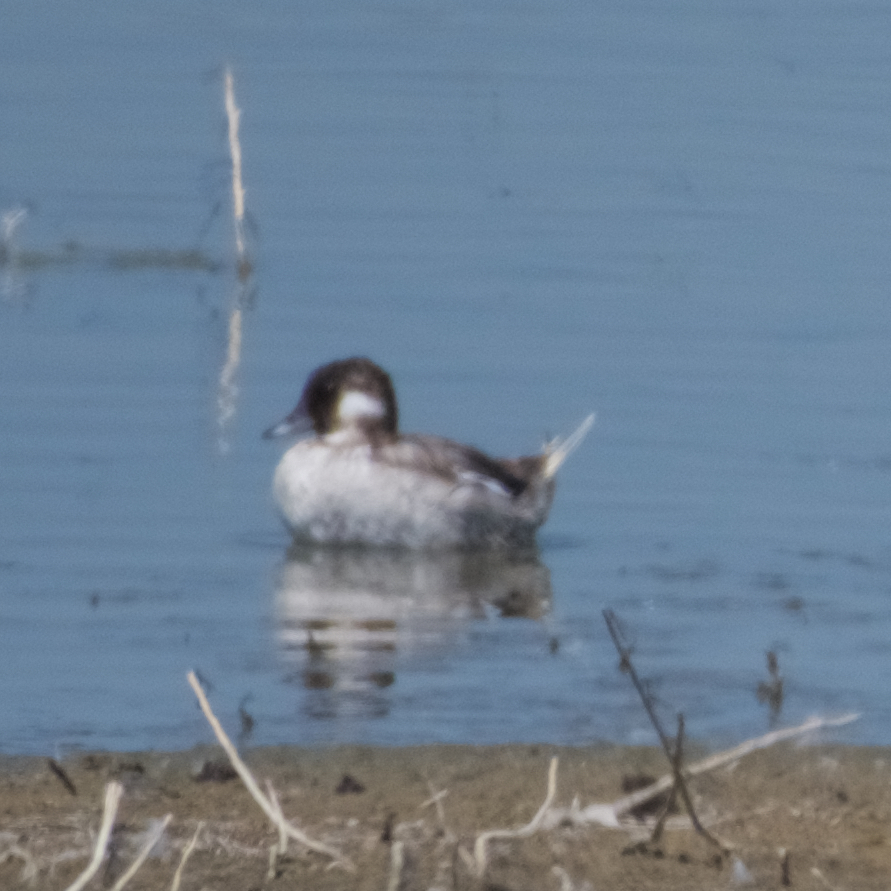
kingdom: Animalia
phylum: Chordata
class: Aves
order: Anseriformes
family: Anatidae
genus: Bucephala
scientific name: Bucephala albeola
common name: Bufflehead
